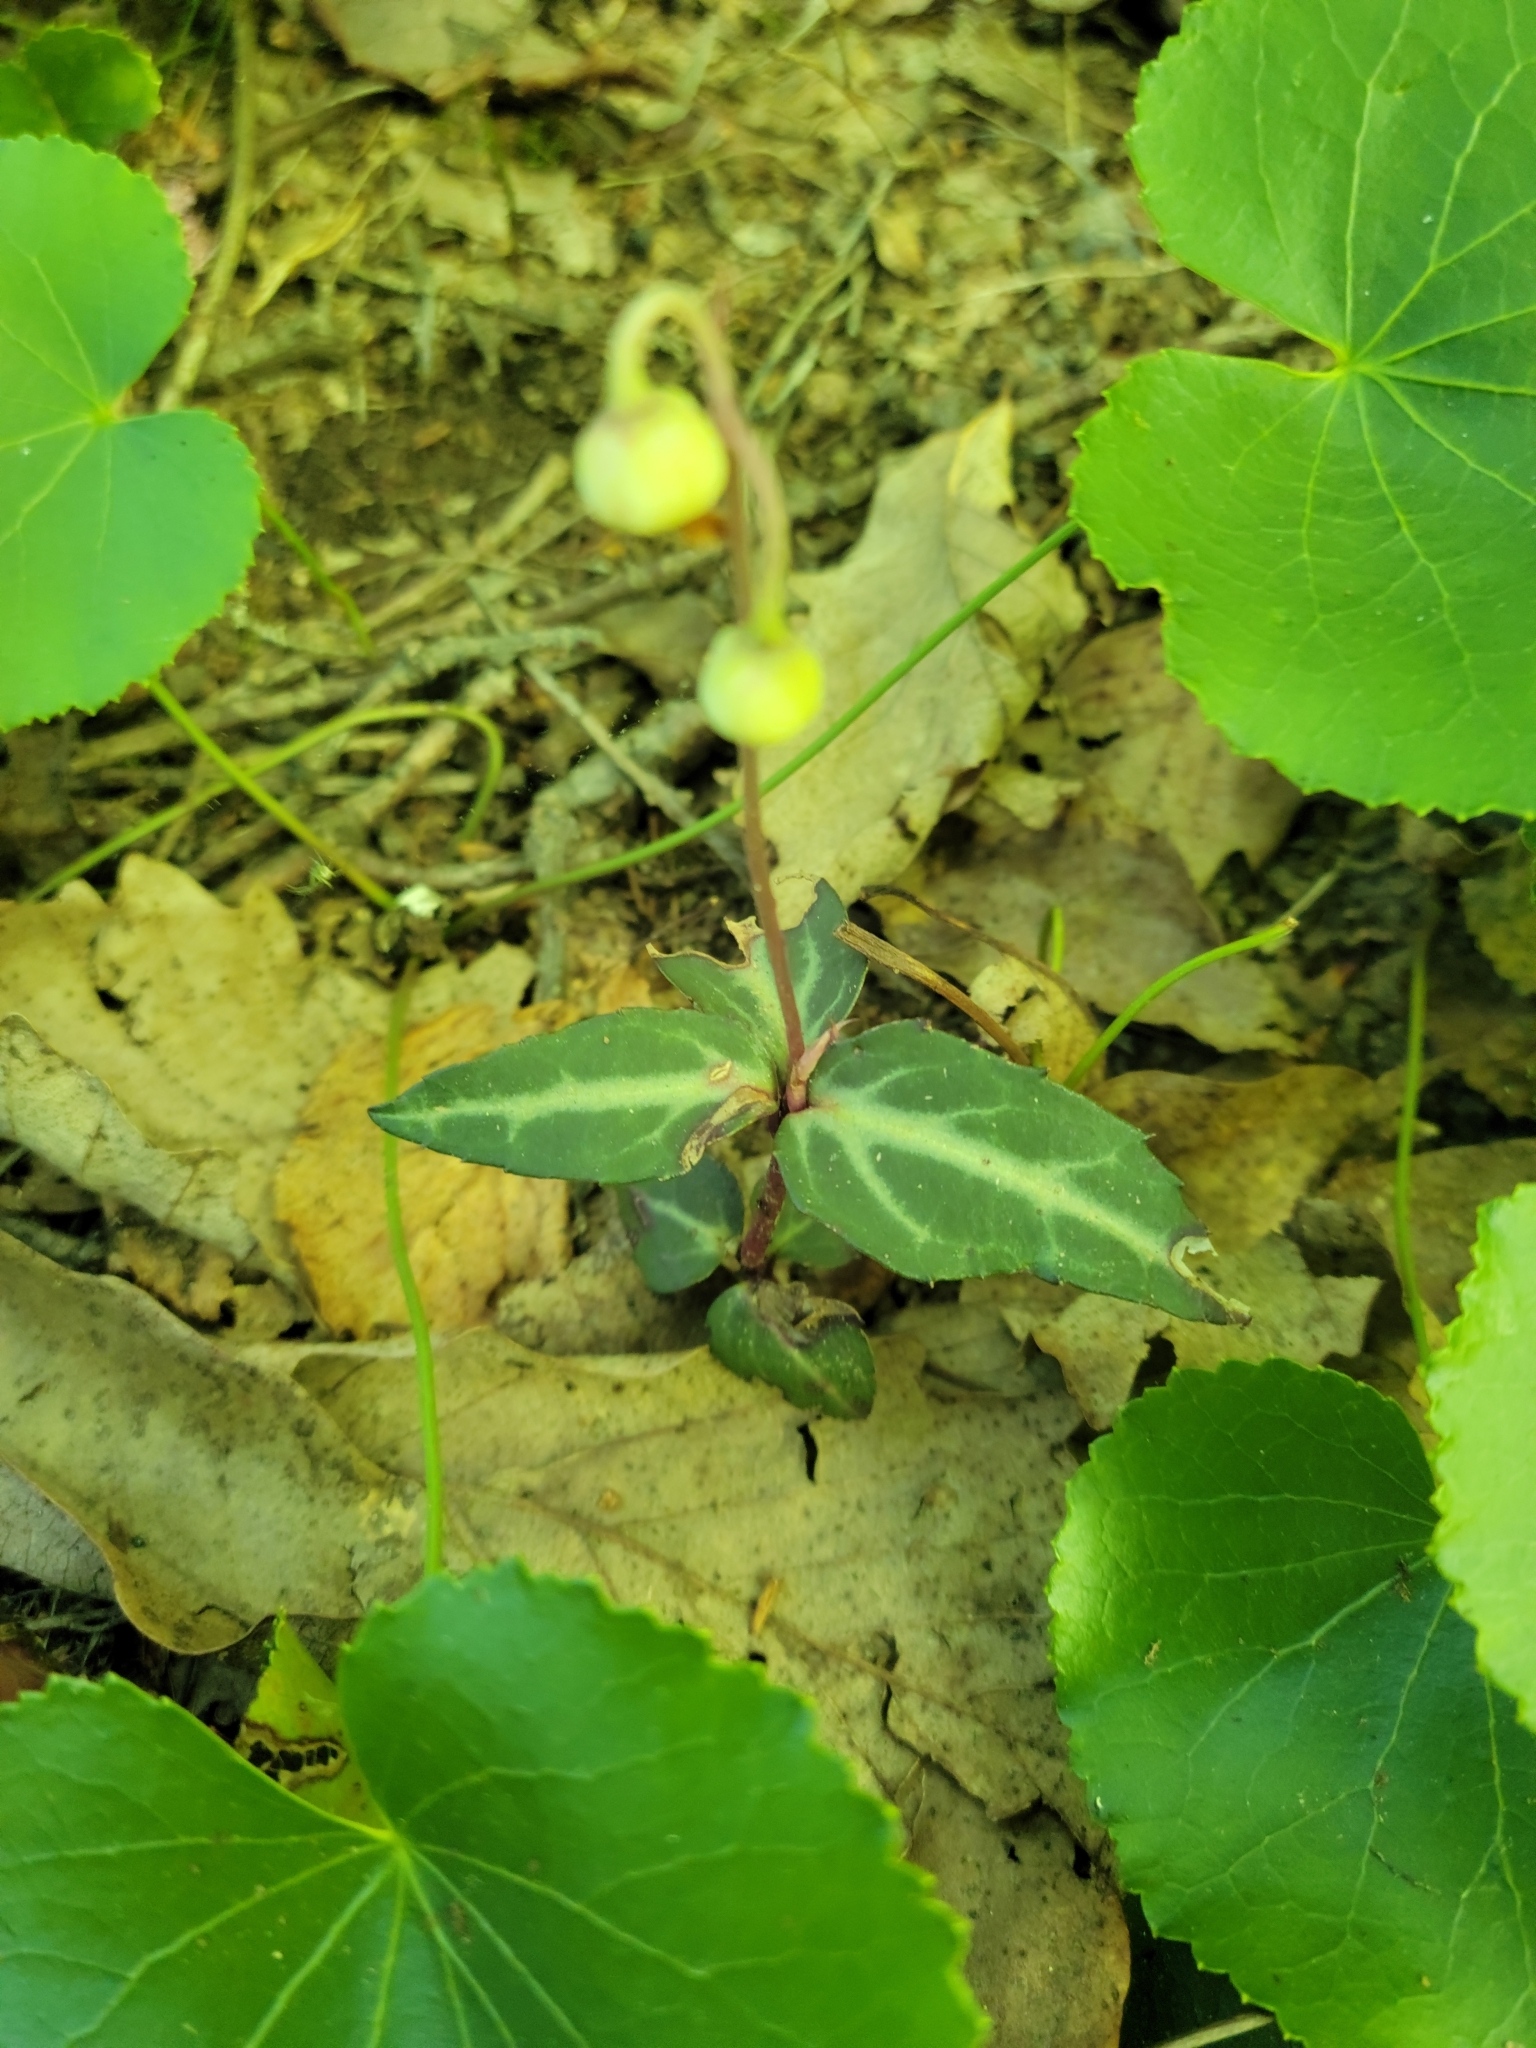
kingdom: Plantae
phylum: Tracheophyta
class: Magnoliopsida
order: Ericales
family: Ericaceae
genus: Chimaphila
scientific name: Chimaphila maculata
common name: Spotted pipsissewa
